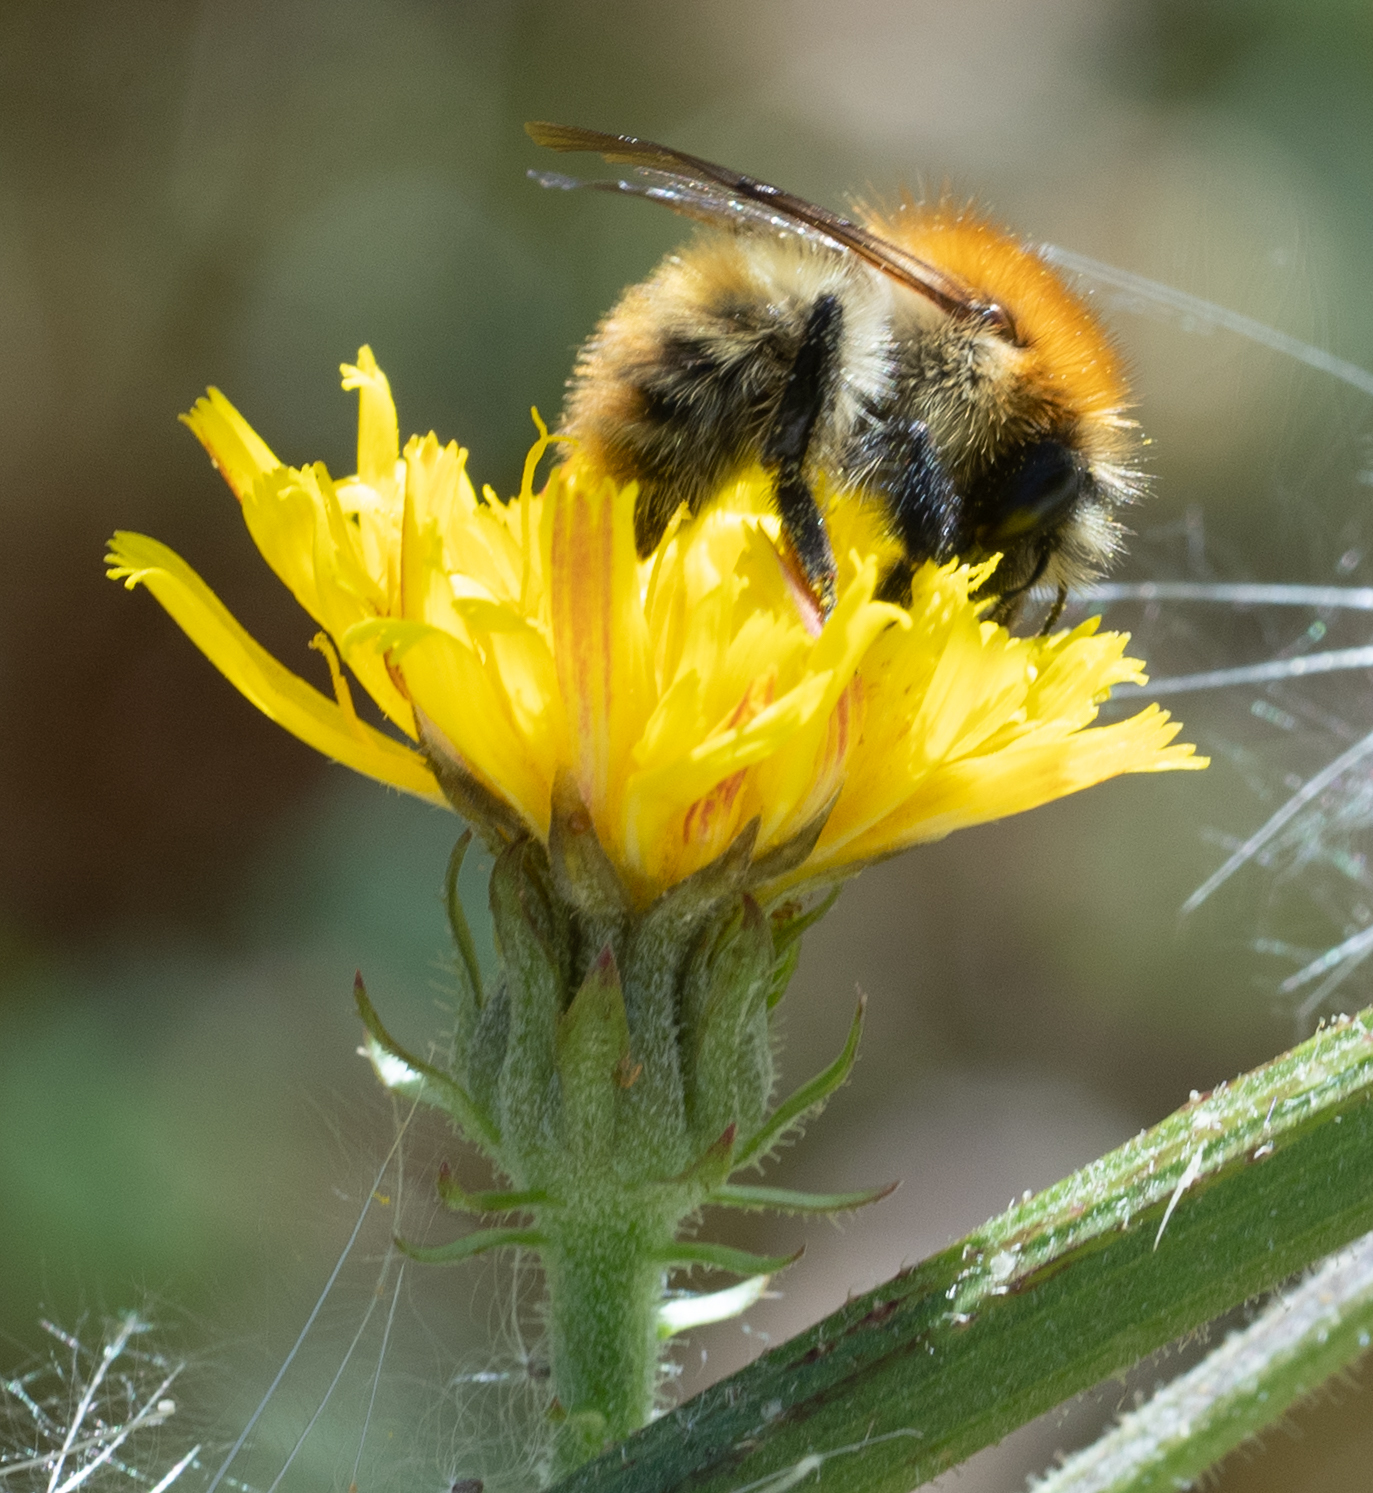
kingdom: Animalia
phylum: Arthropoda
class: Insecta
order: Hymenoptera
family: Apidae
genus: Bombus
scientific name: Bombus pascuorum
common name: Common carder bee
